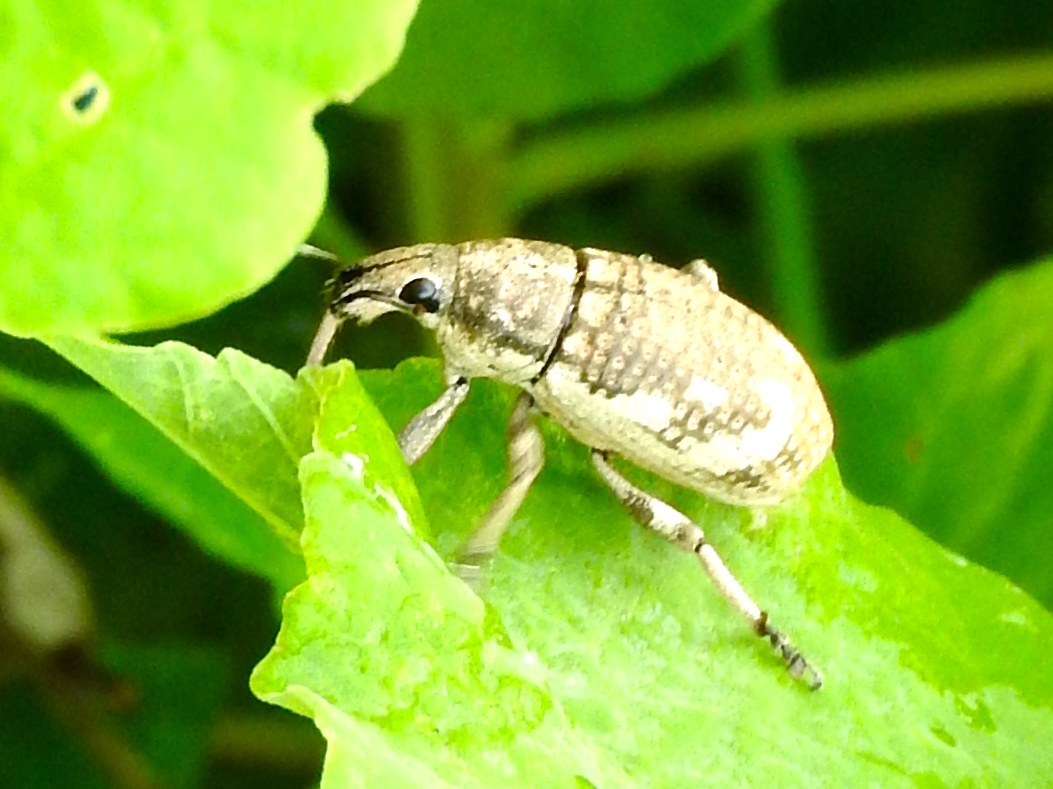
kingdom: Animalia
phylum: Arthropoda
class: Insecta
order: Coleoptera
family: Curculionidae
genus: Epicaerus
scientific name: Epicaerus
